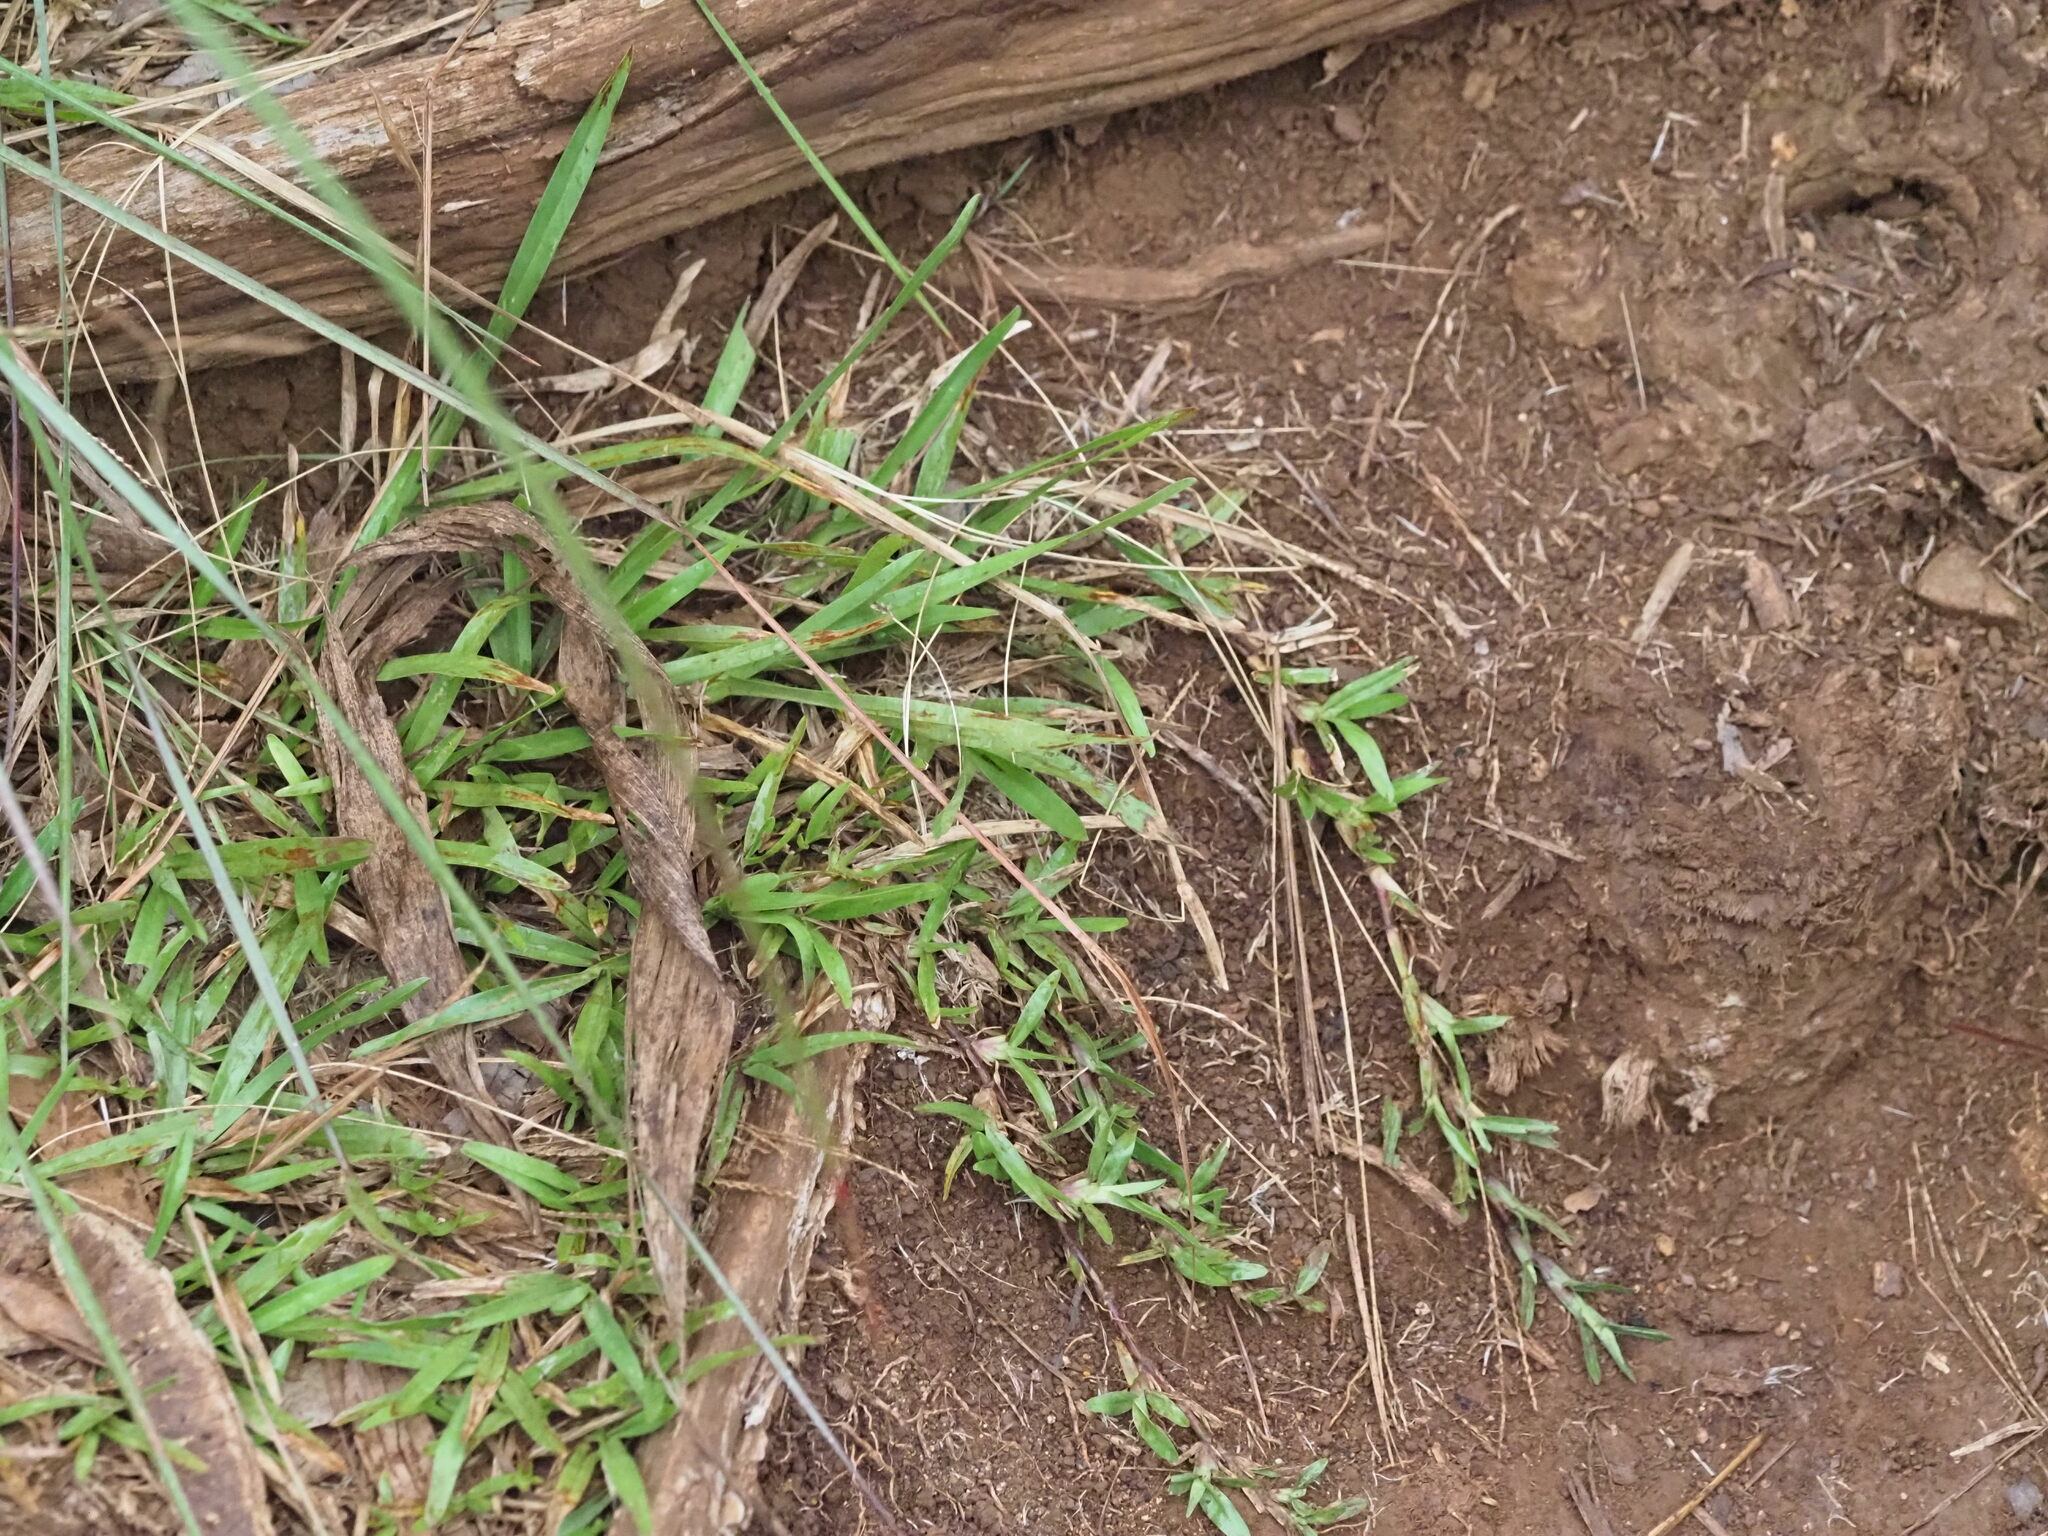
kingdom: Plantae
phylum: Tracheophyta
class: Liliopsida
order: Poales
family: Poaceae
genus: Axonopus
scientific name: Axonopus fissifolius
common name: Common carpetgrass
